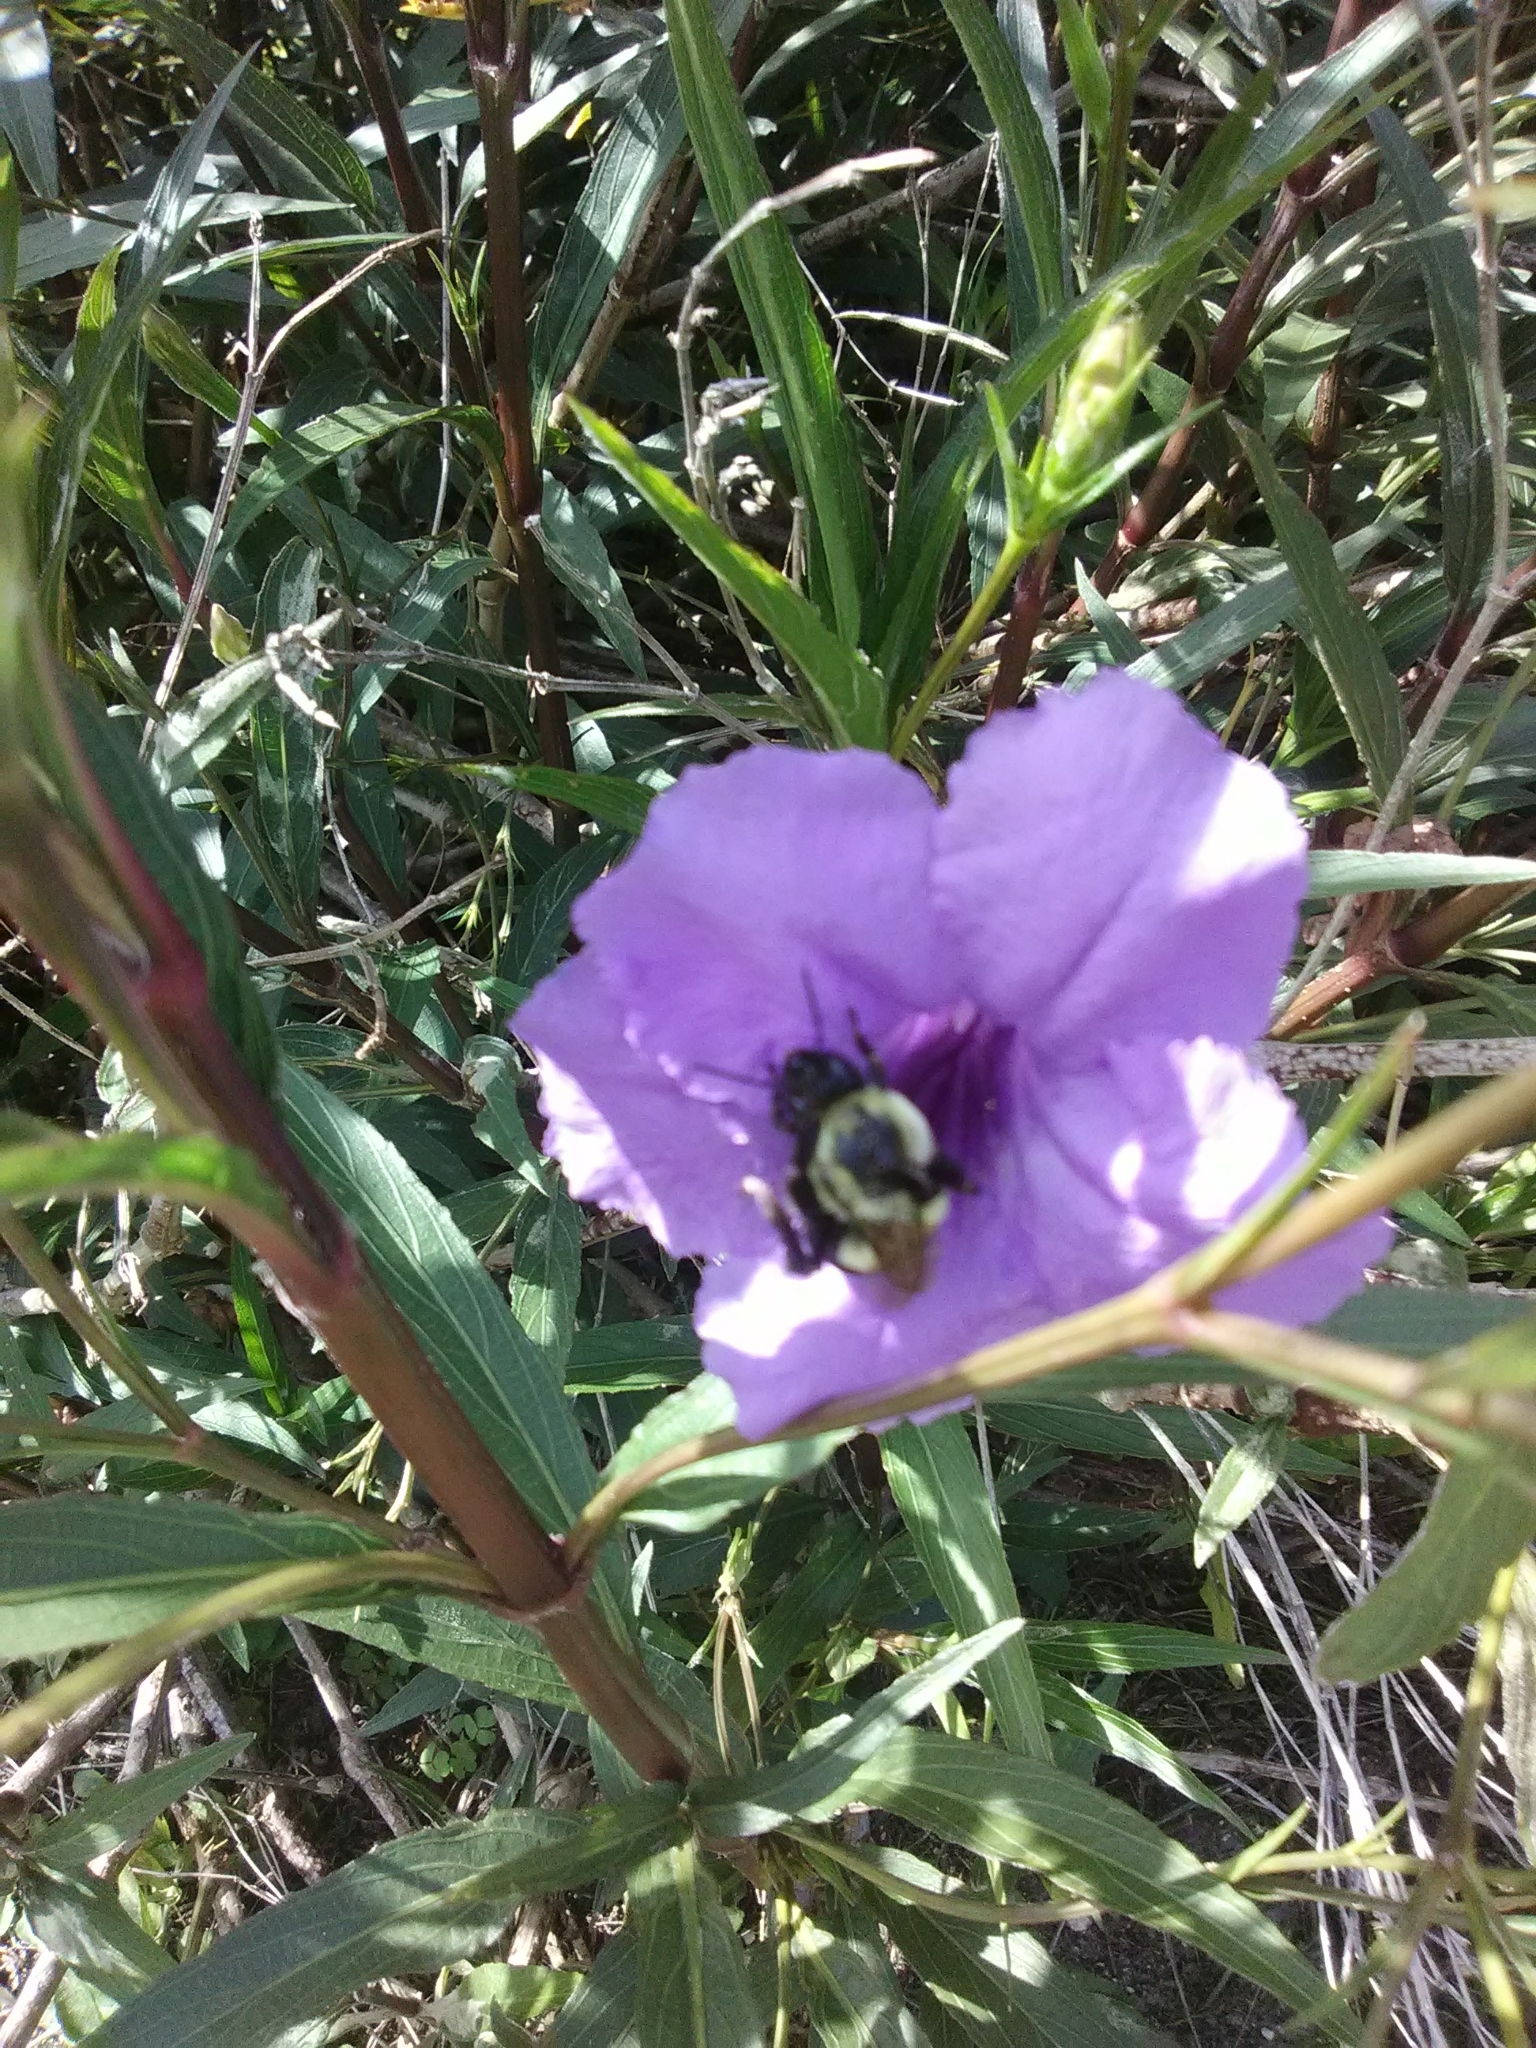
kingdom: Animalia
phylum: Arthropoda
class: Insecta
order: Hymenoptera
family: Apidae
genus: Bombus
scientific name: Bombus impatiens
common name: Common eastern bumble bee
